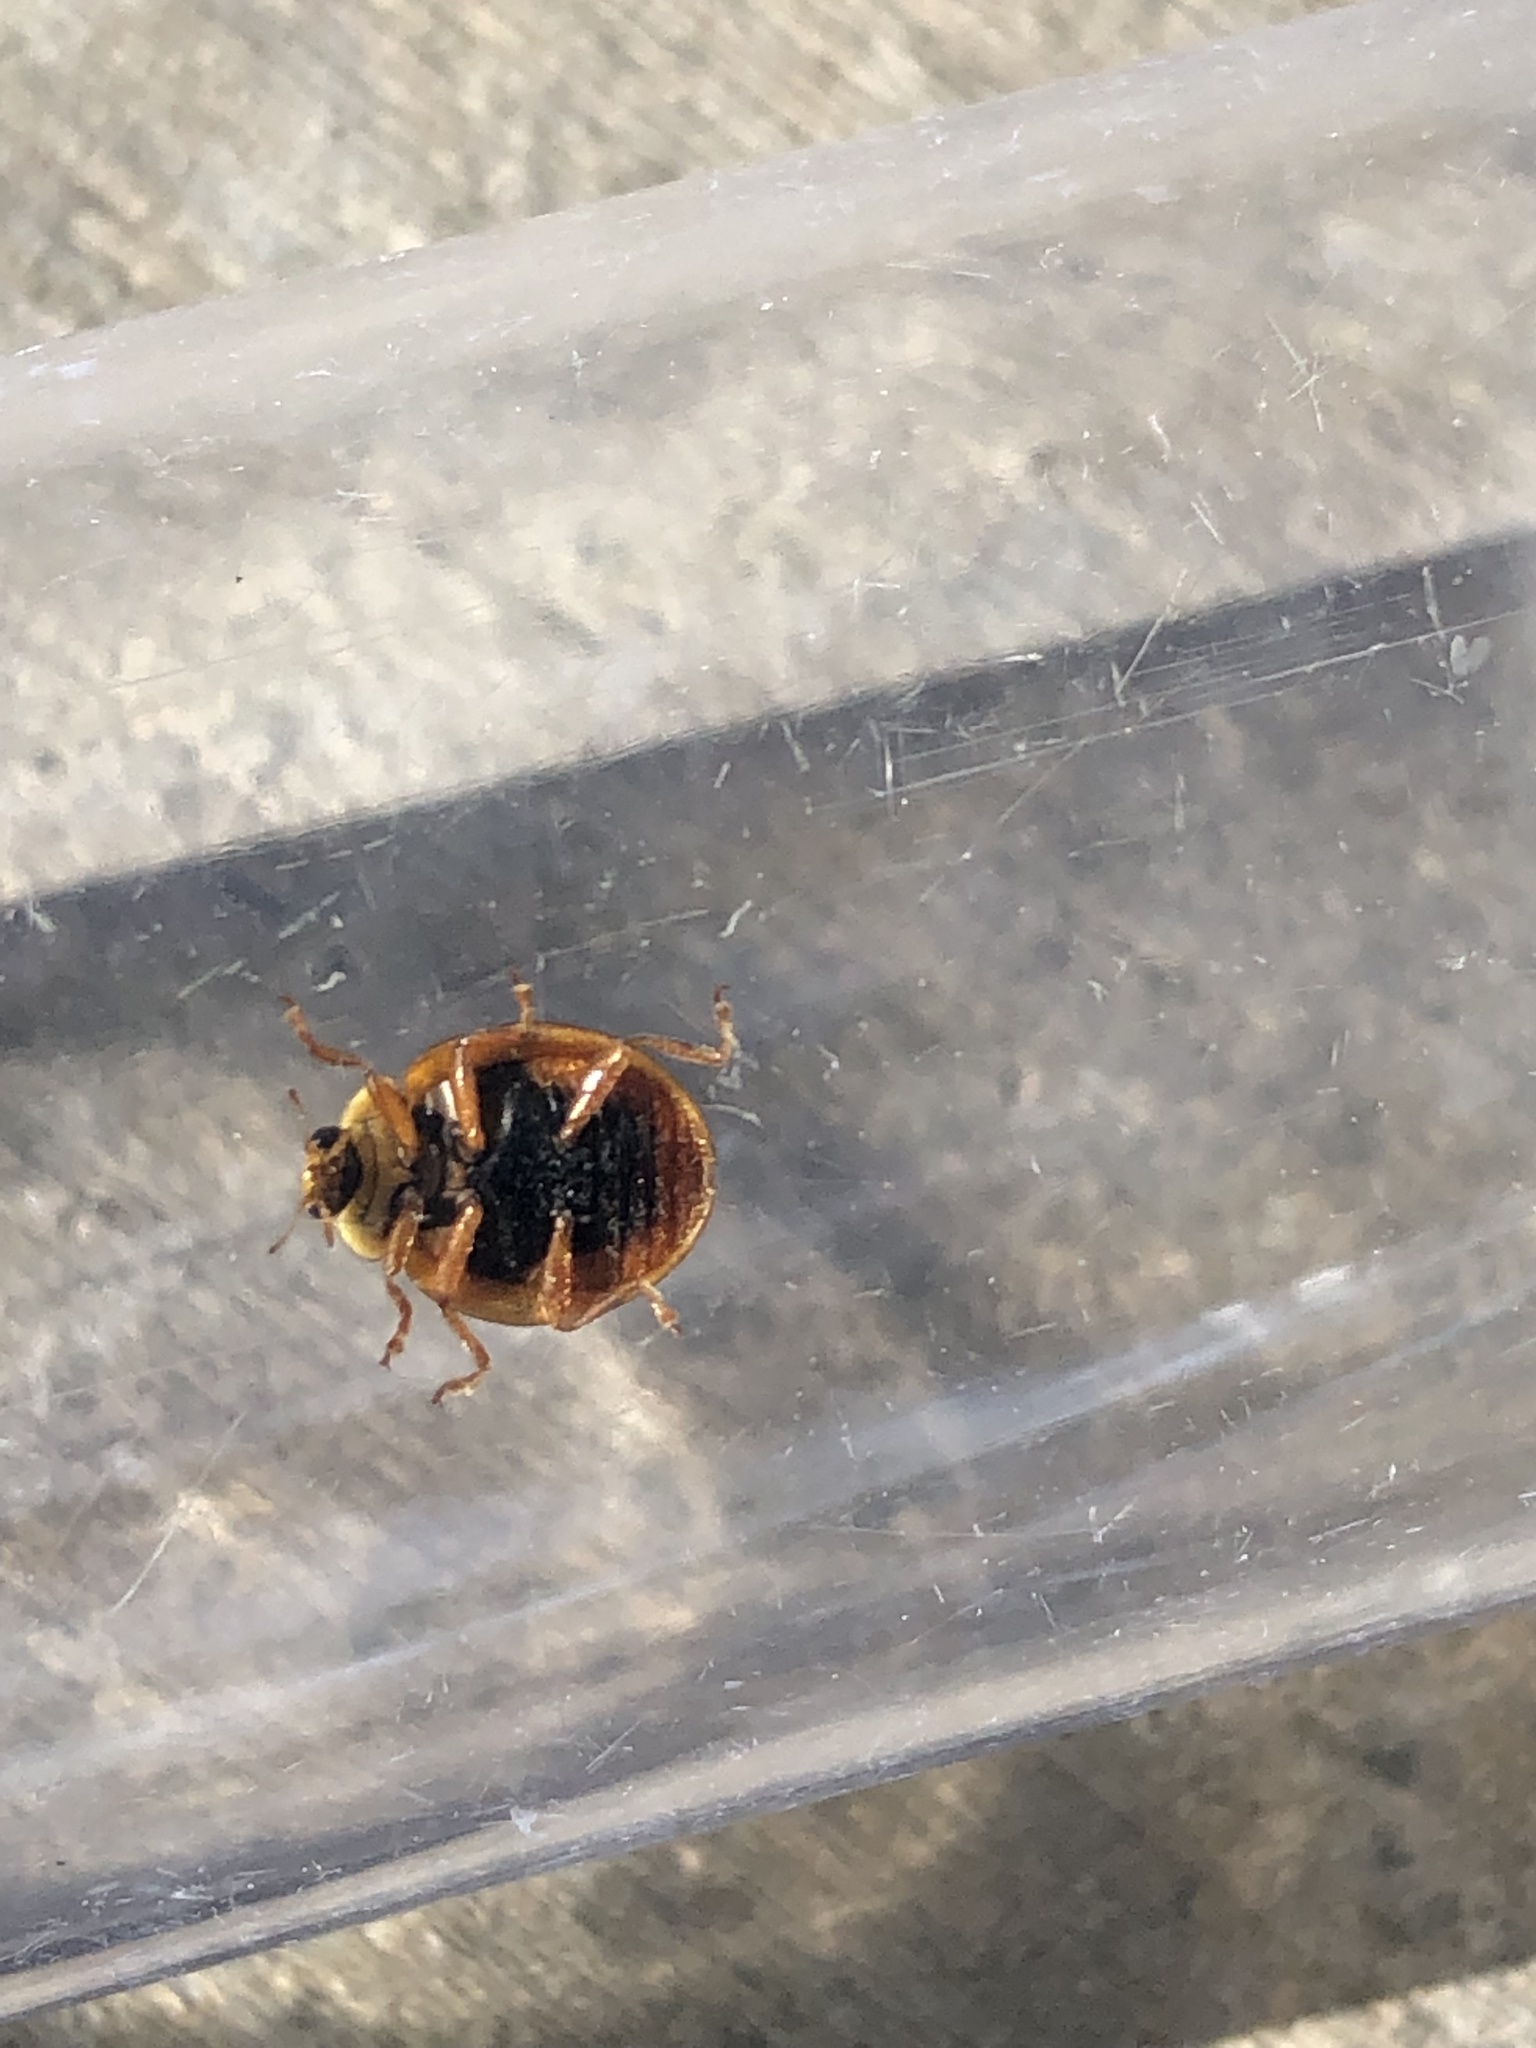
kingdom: Animalia
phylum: Arthropoda
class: Insecta
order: Coleoptera
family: Coccinellidae
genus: Harmonia
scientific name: Harmonia axyridis
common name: Harlequin ladybird
